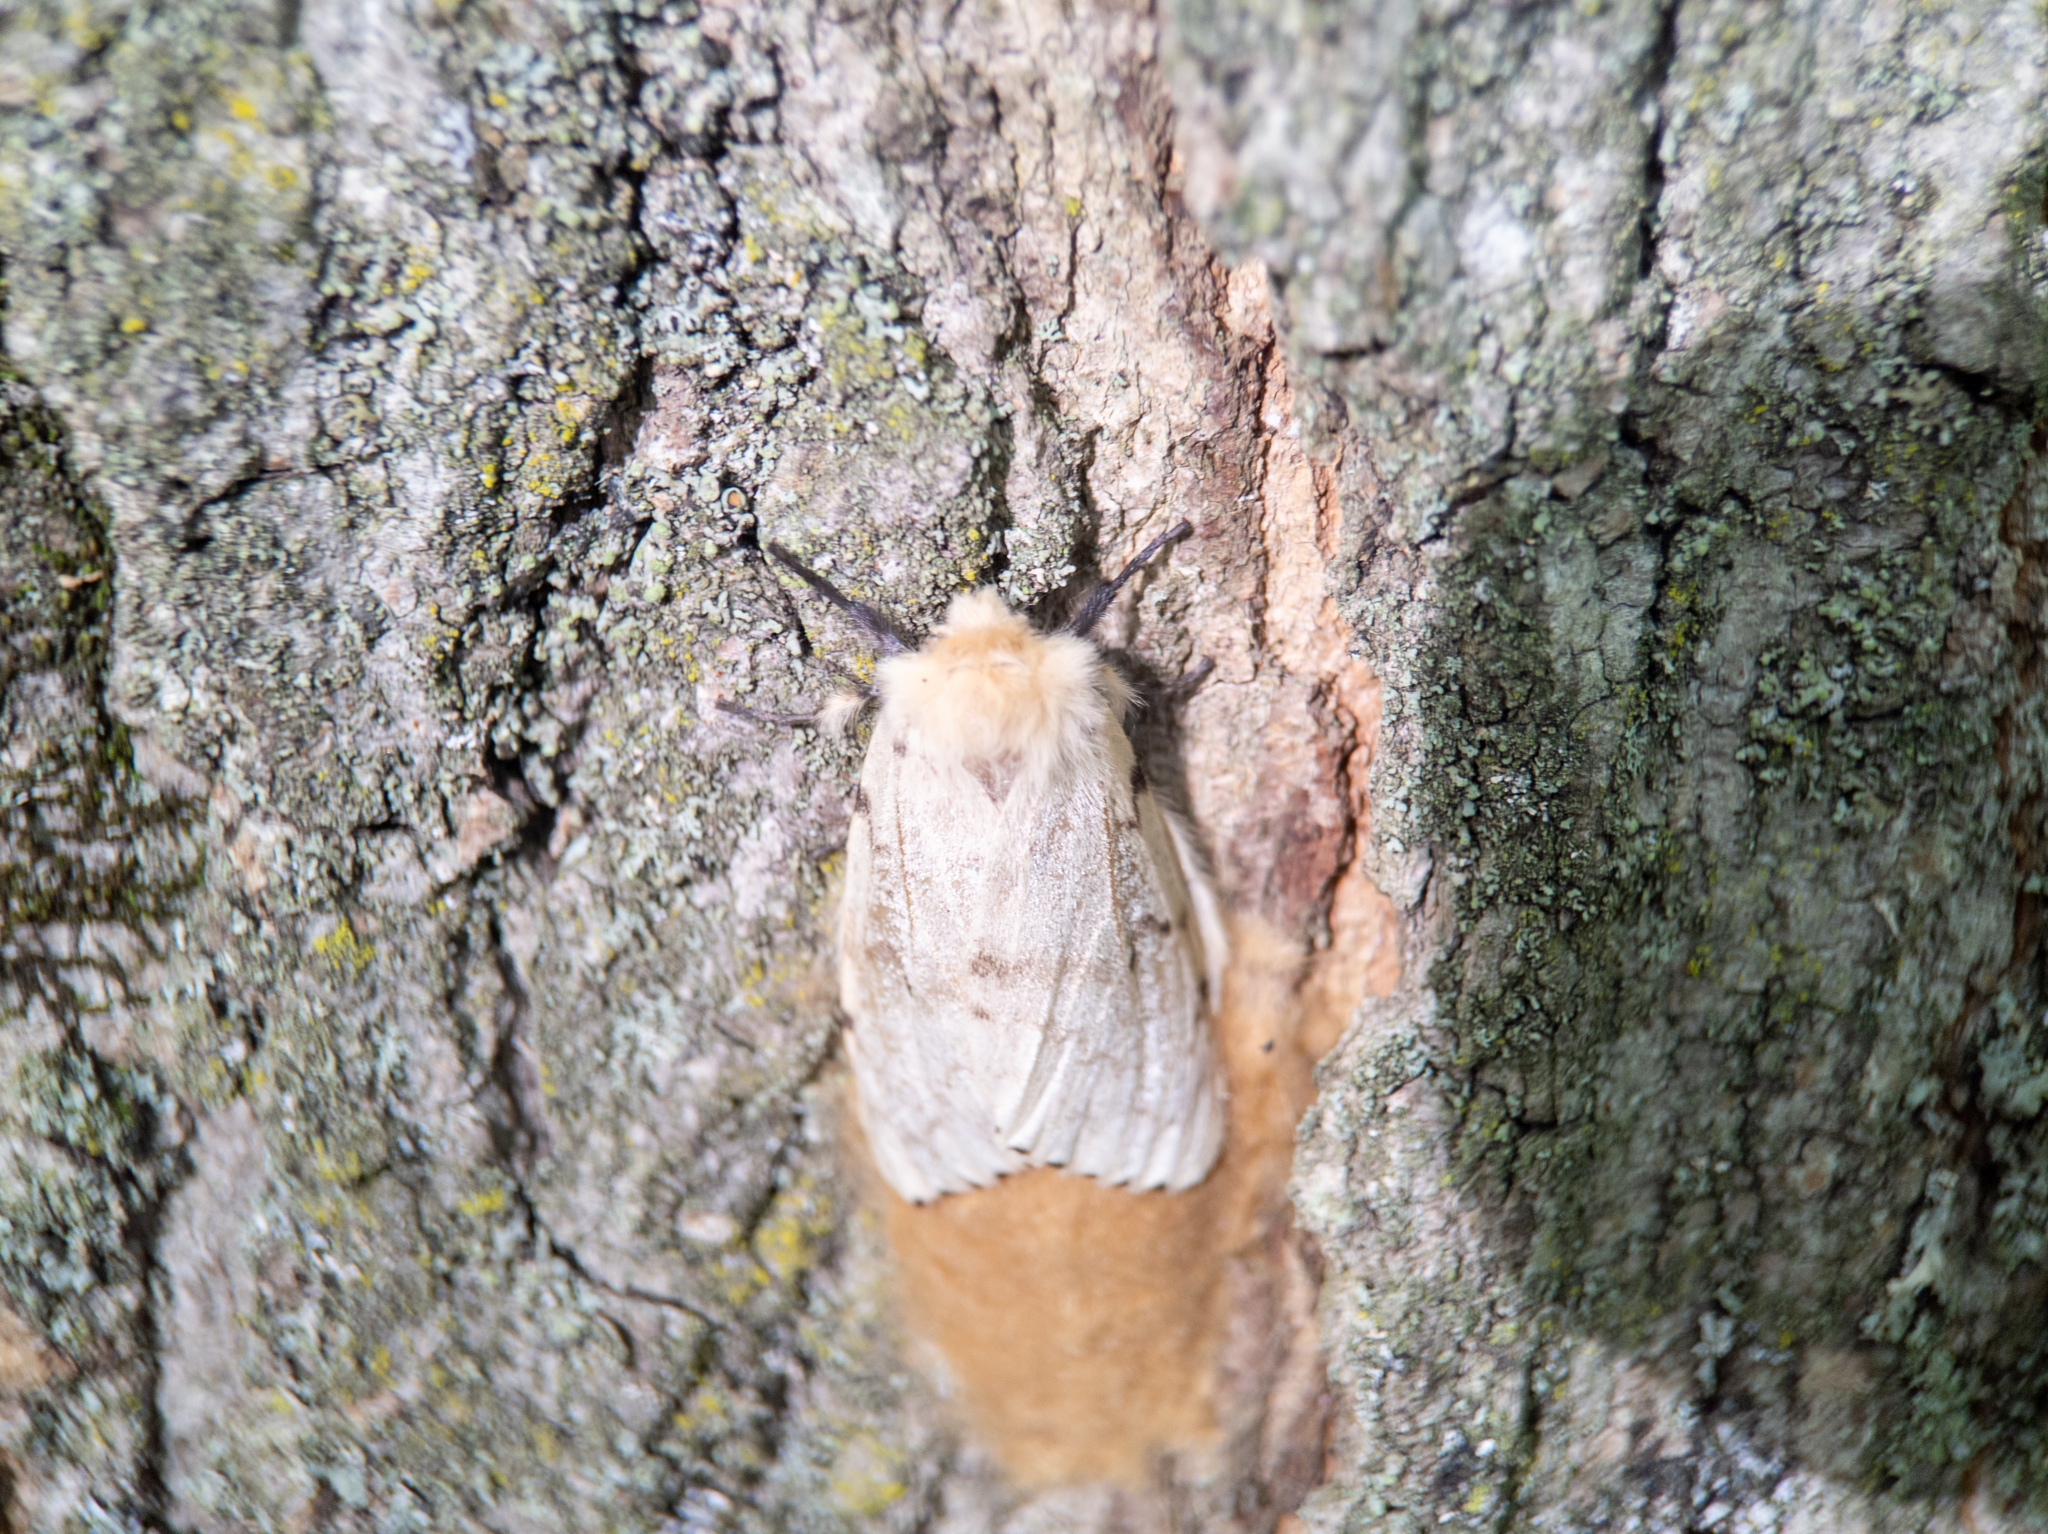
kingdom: Animalia
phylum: Arthropoda
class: Insecta
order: Lepidoptera
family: Erebidae
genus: Lymantria
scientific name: Lymantria dispar
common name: Gypsy moth
